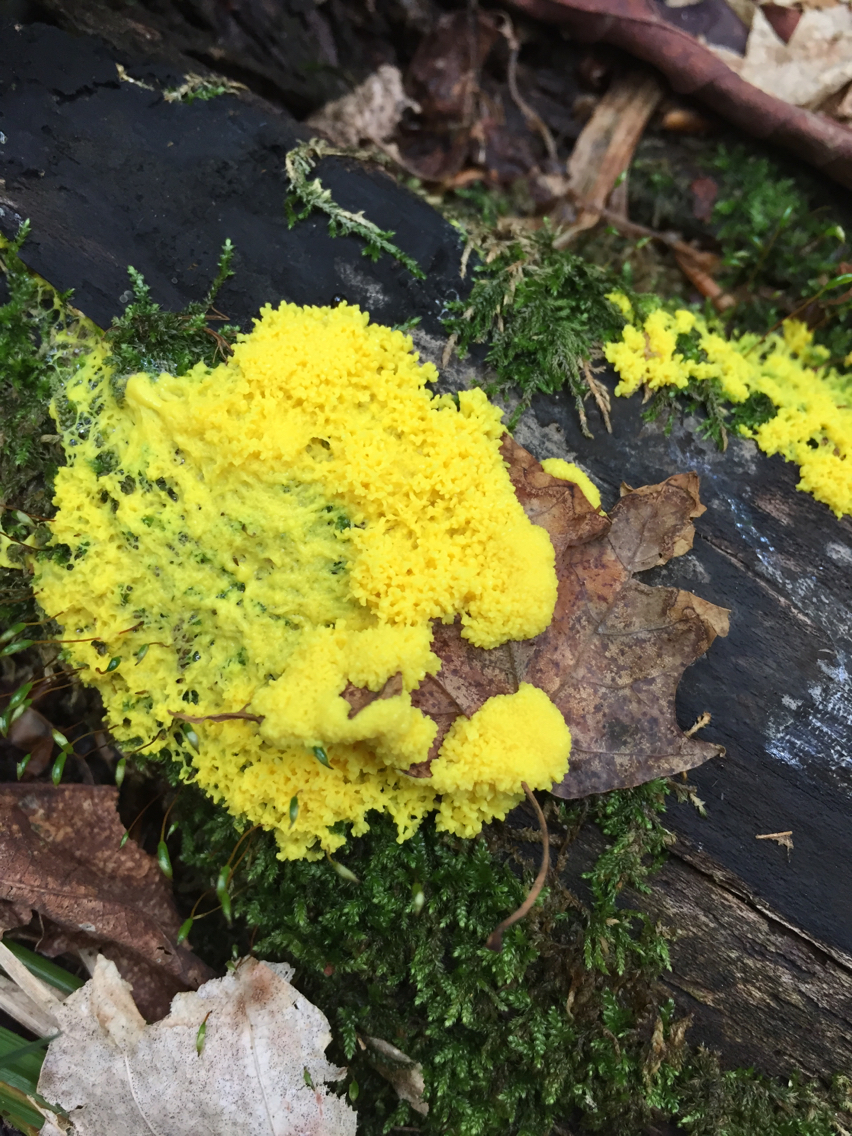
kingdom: Protozoa
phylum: Mycetozoa
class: Myxomycetes
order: Physarales
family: Physaraceae
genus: Fuligo
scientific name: Fuligo septica
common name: Dog vomit slime mold
